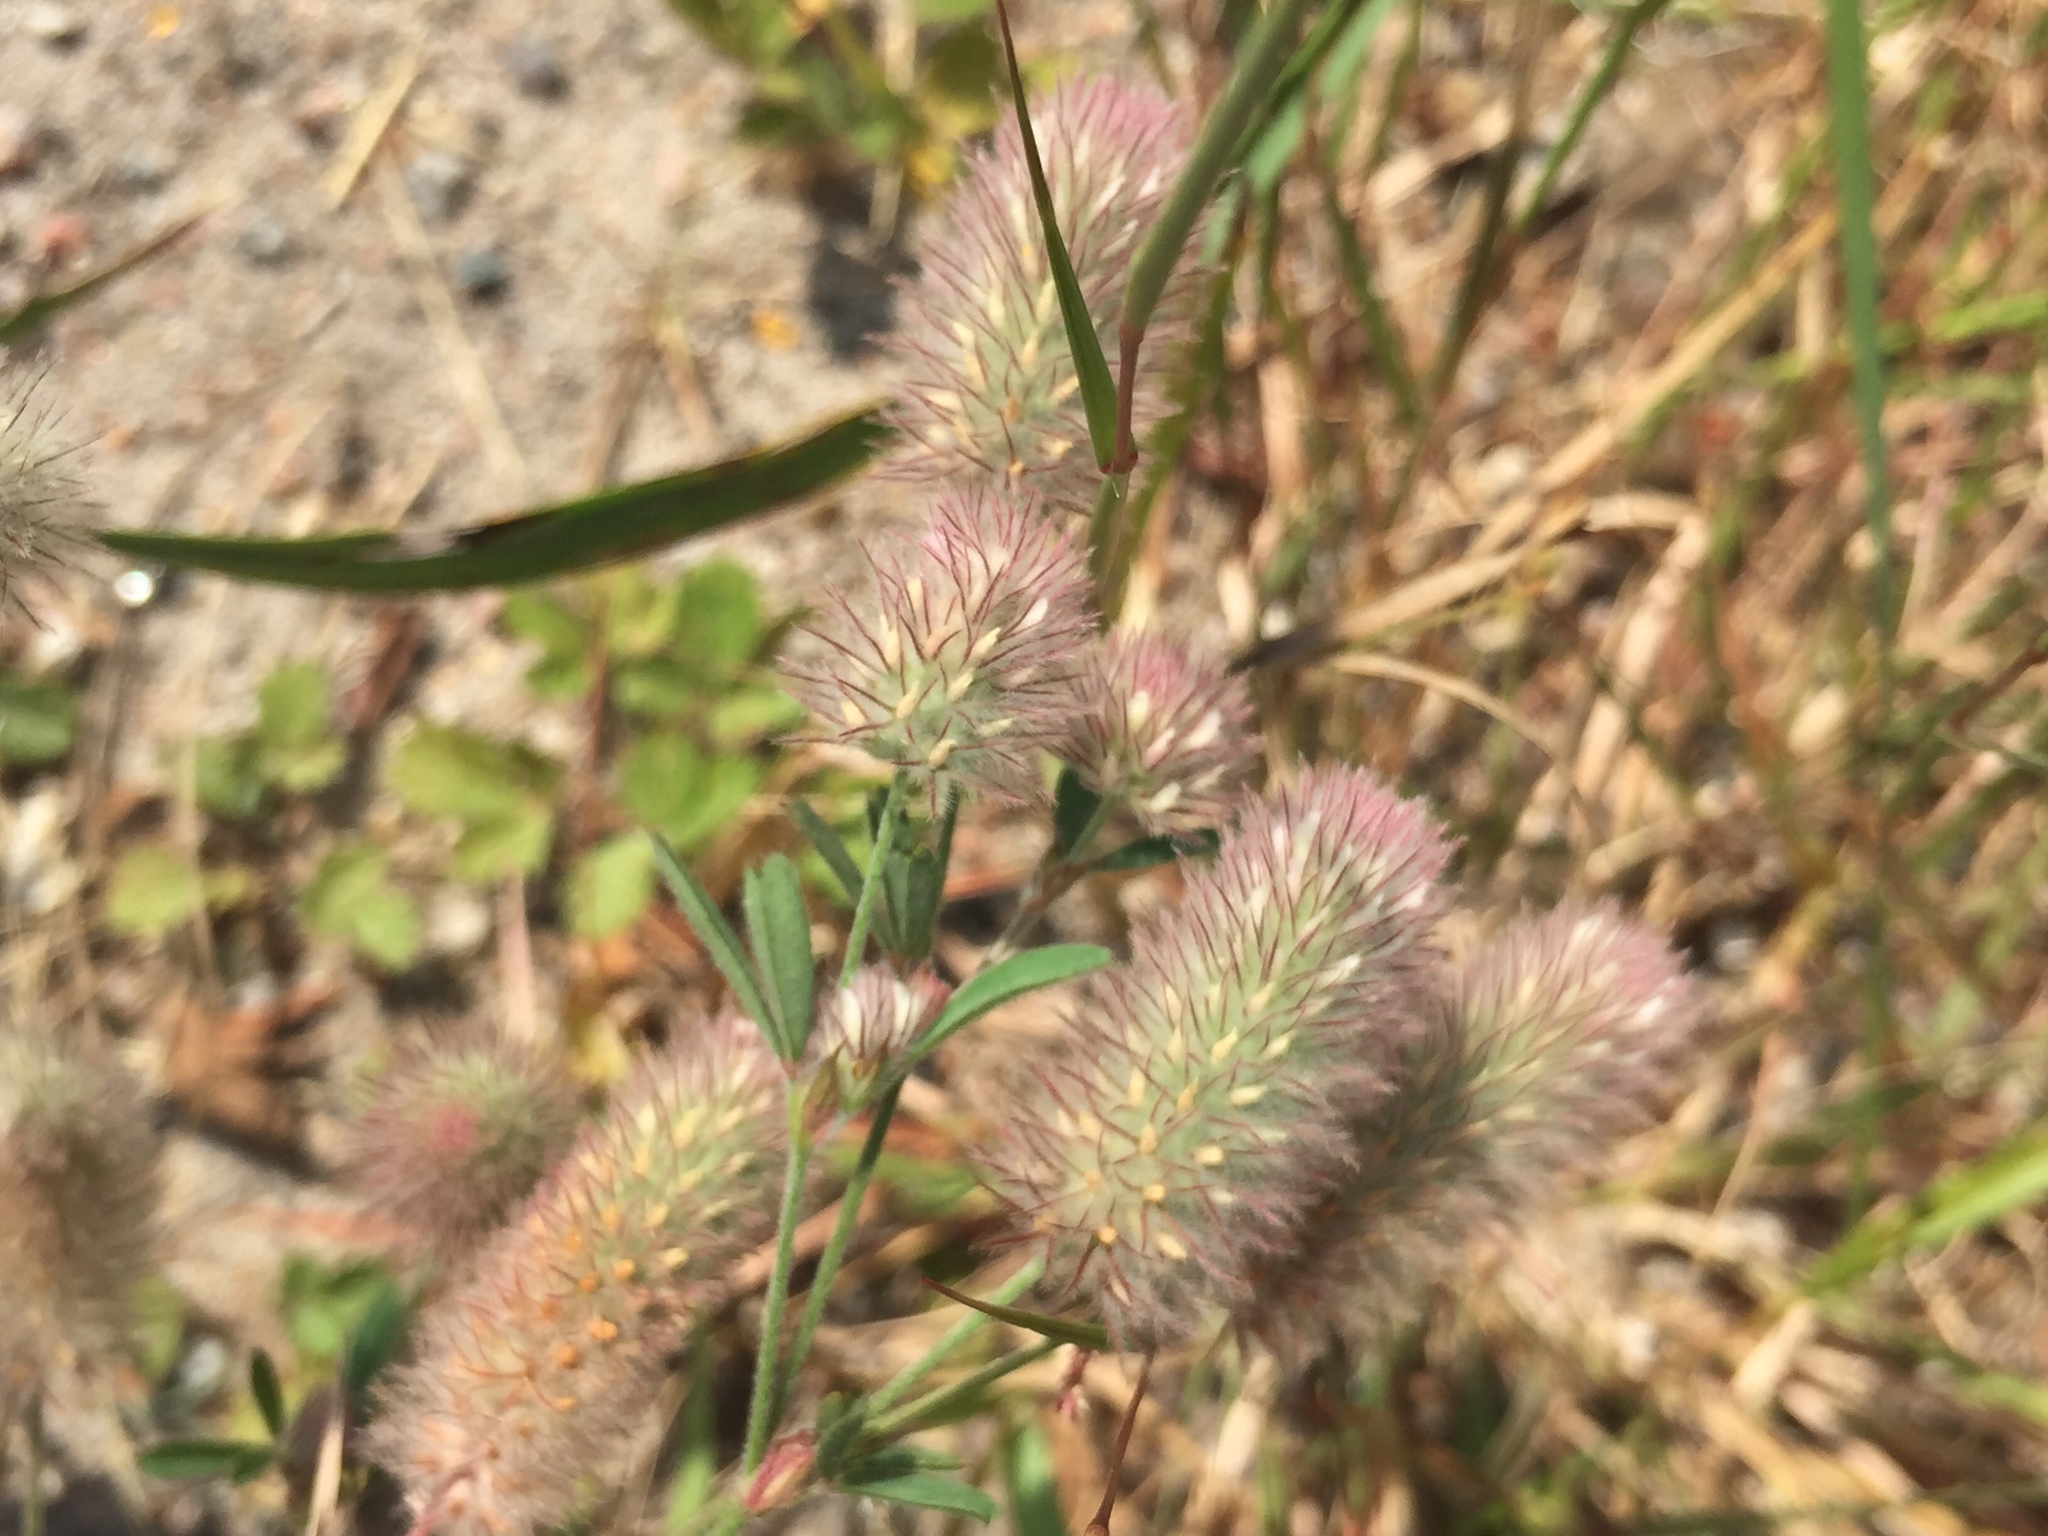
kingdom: Plantae
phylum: Tracheophyta
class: Magnoliopsida
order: Fabales
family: Fabaceae
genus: Trifolium
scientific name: Trifolium arvense
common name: Hare's-foot clover
